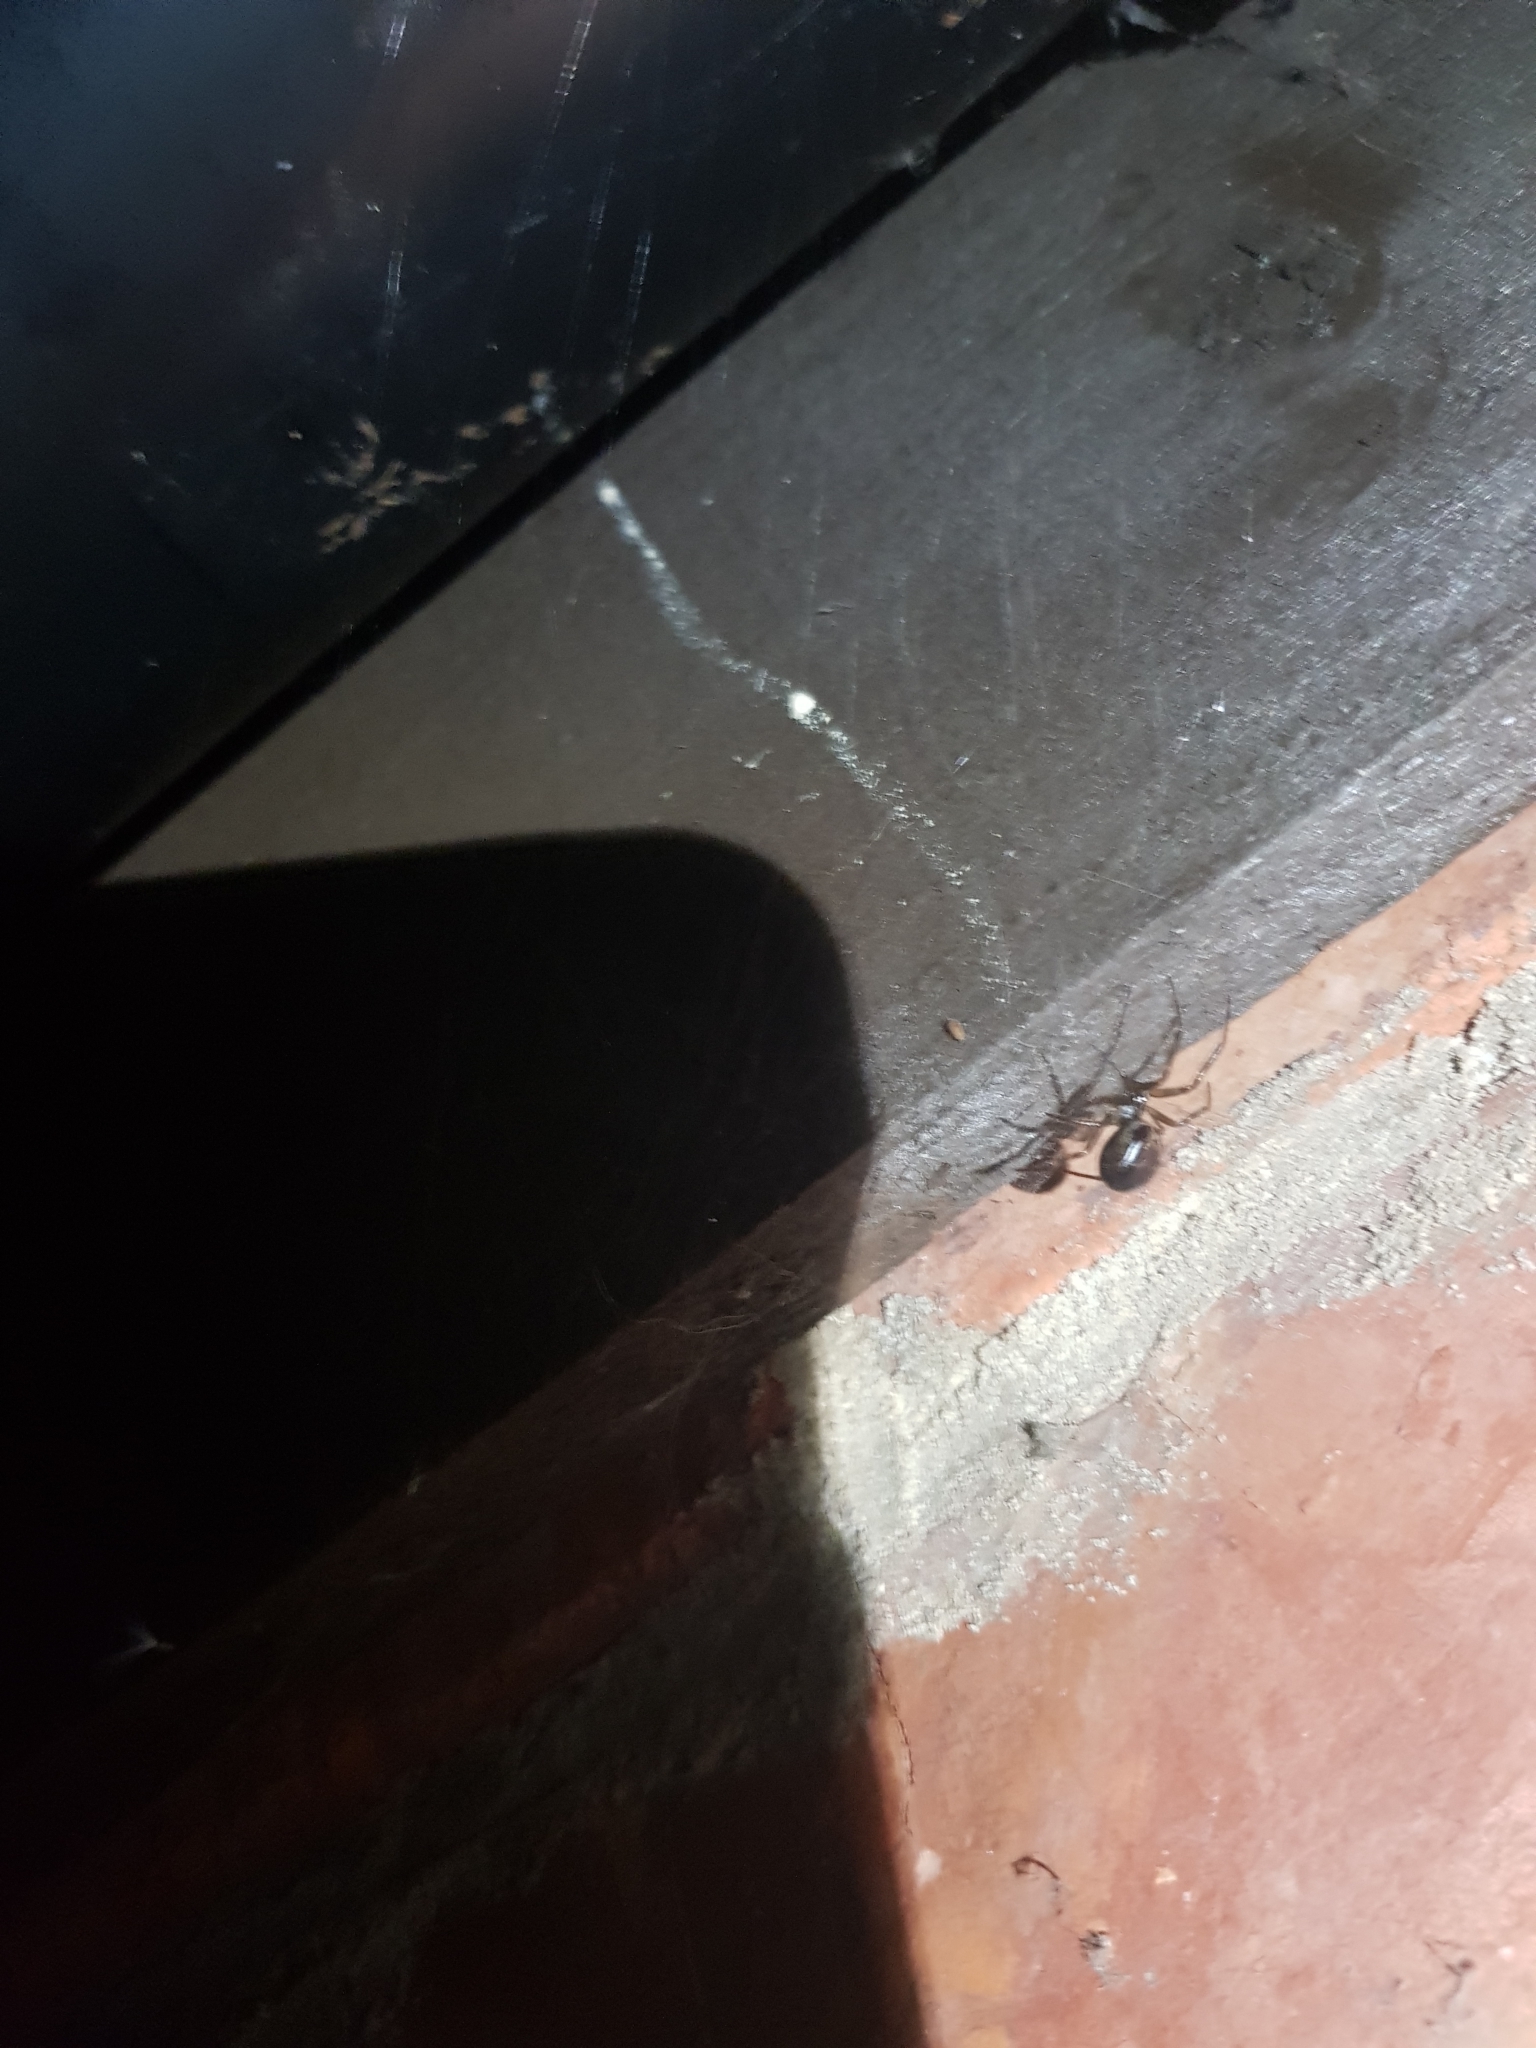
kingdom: Animalia
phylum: Arthropoda
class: Arachnida
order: Araneae
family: Theridiidae
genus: Steatoda
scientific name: Steatoda nobilis
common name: Cobweb weaver
